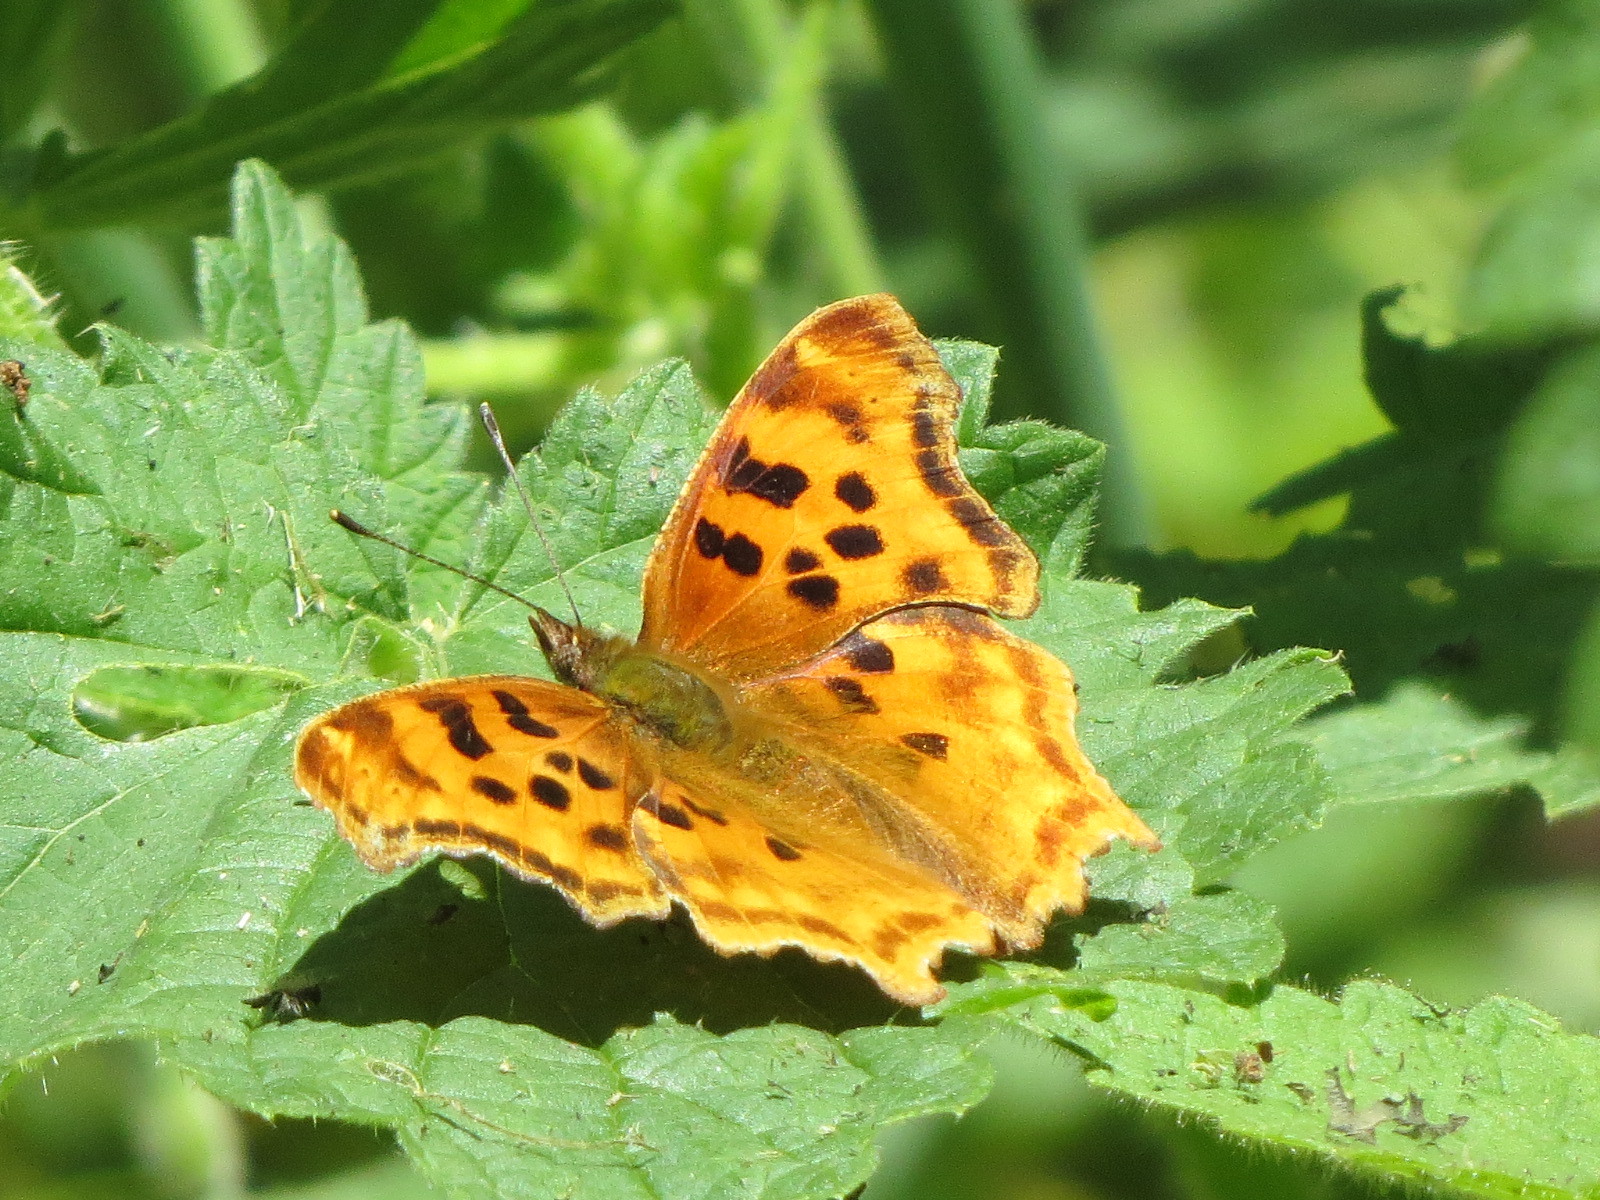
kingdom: Animalia
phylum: Arthropoda
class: Insecta
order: Lepidoptera
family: Nymphalidae
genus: Polygonia
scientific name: Polygonia satyrus
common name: Satyr angle wing
